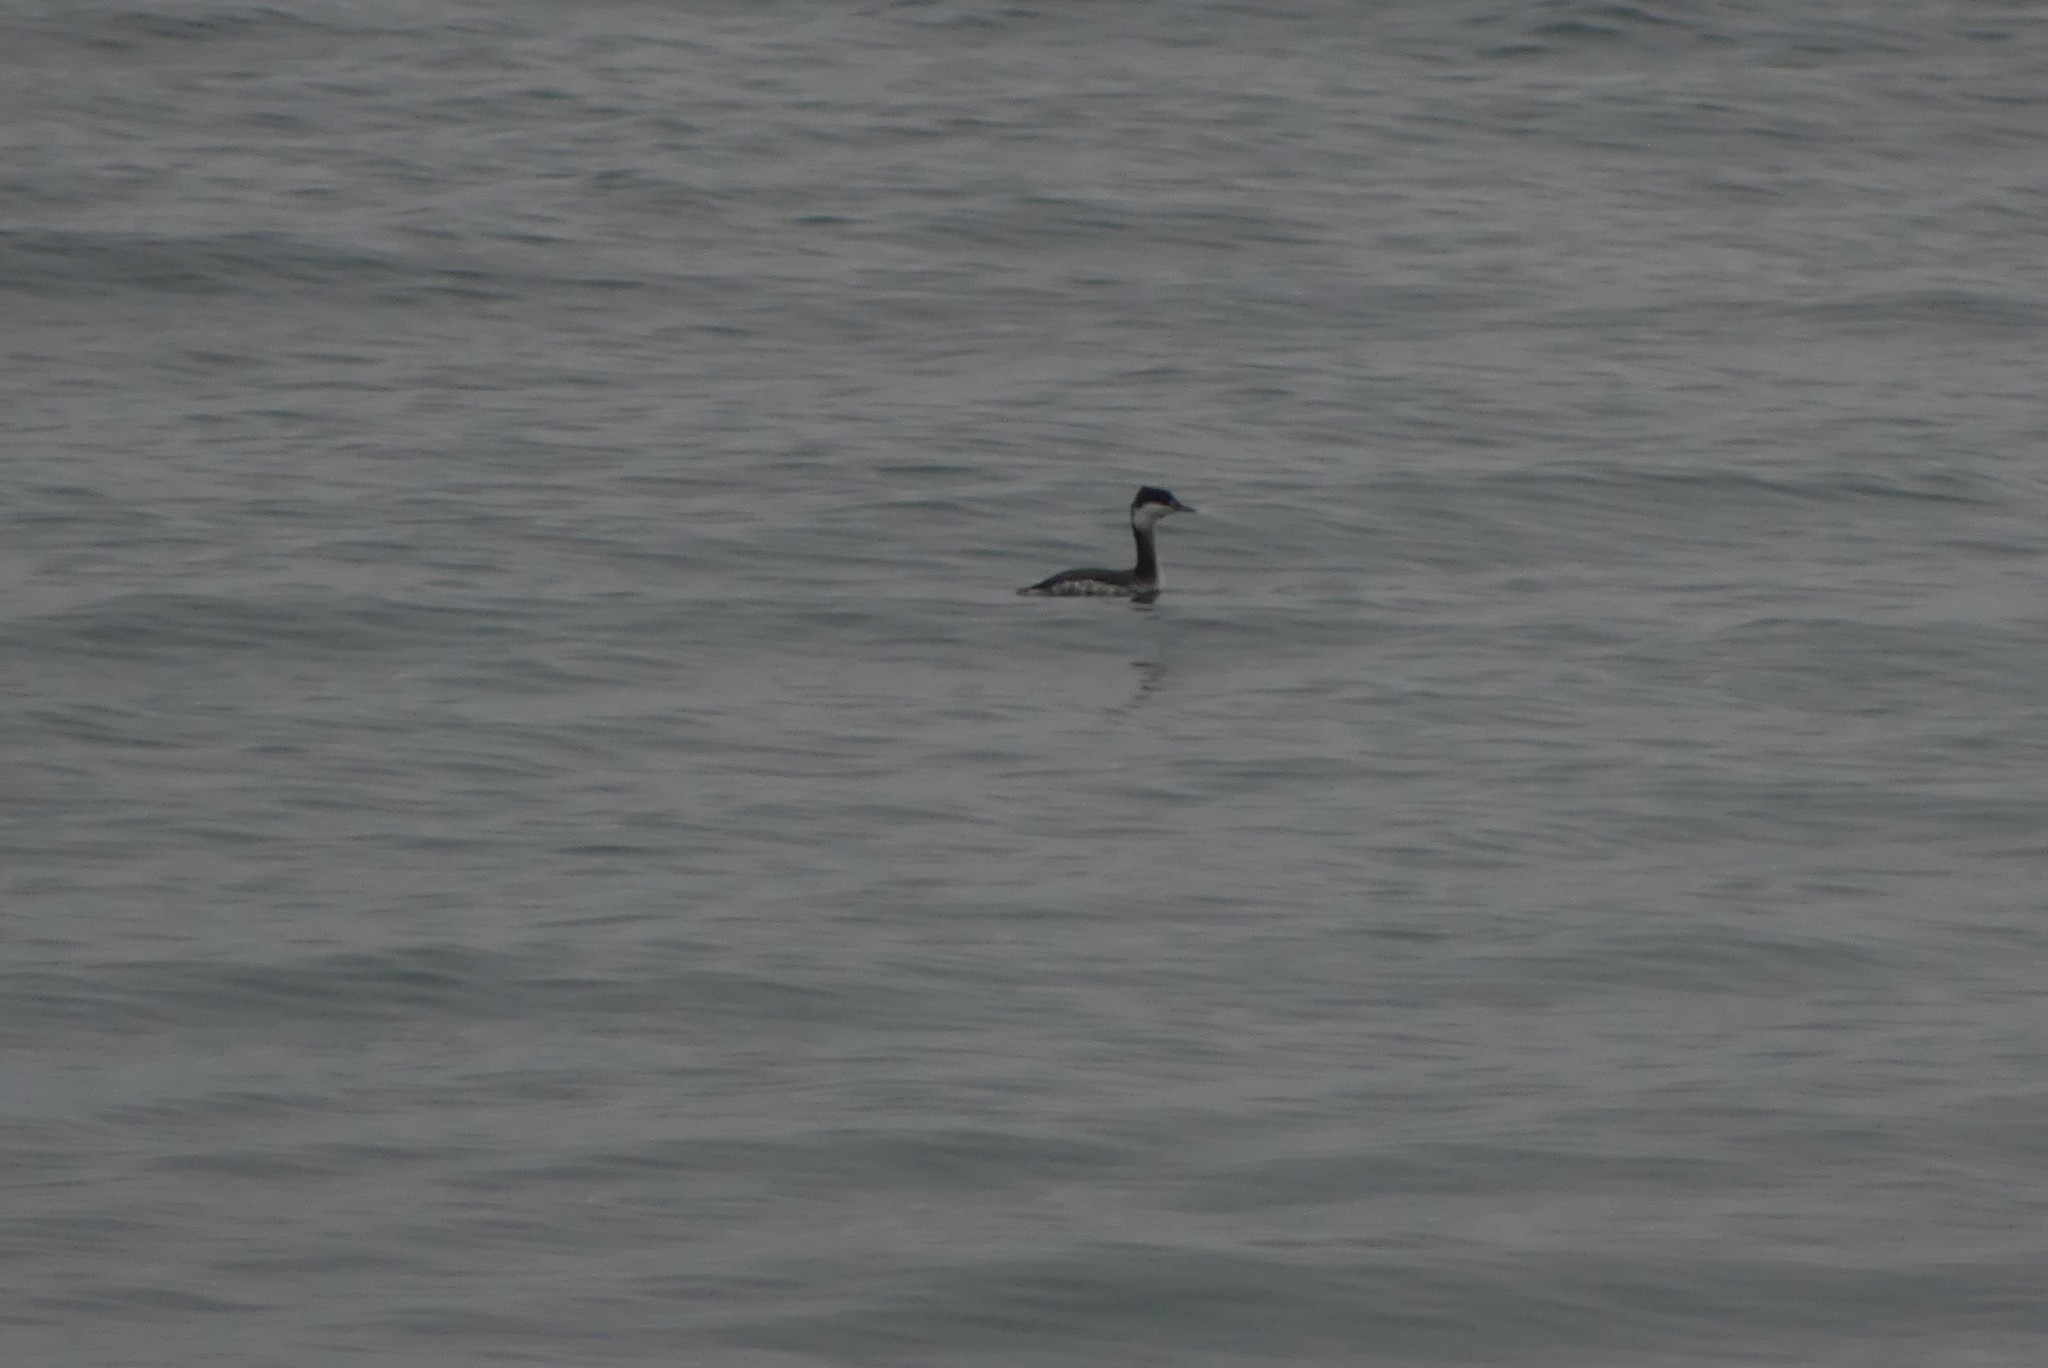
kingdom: Animalia
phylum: Chordata
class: Aves
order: Podicipediformes
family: Podicipedidae
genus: Podiceps
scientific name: Podiceps auritus
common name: Horned grebe
